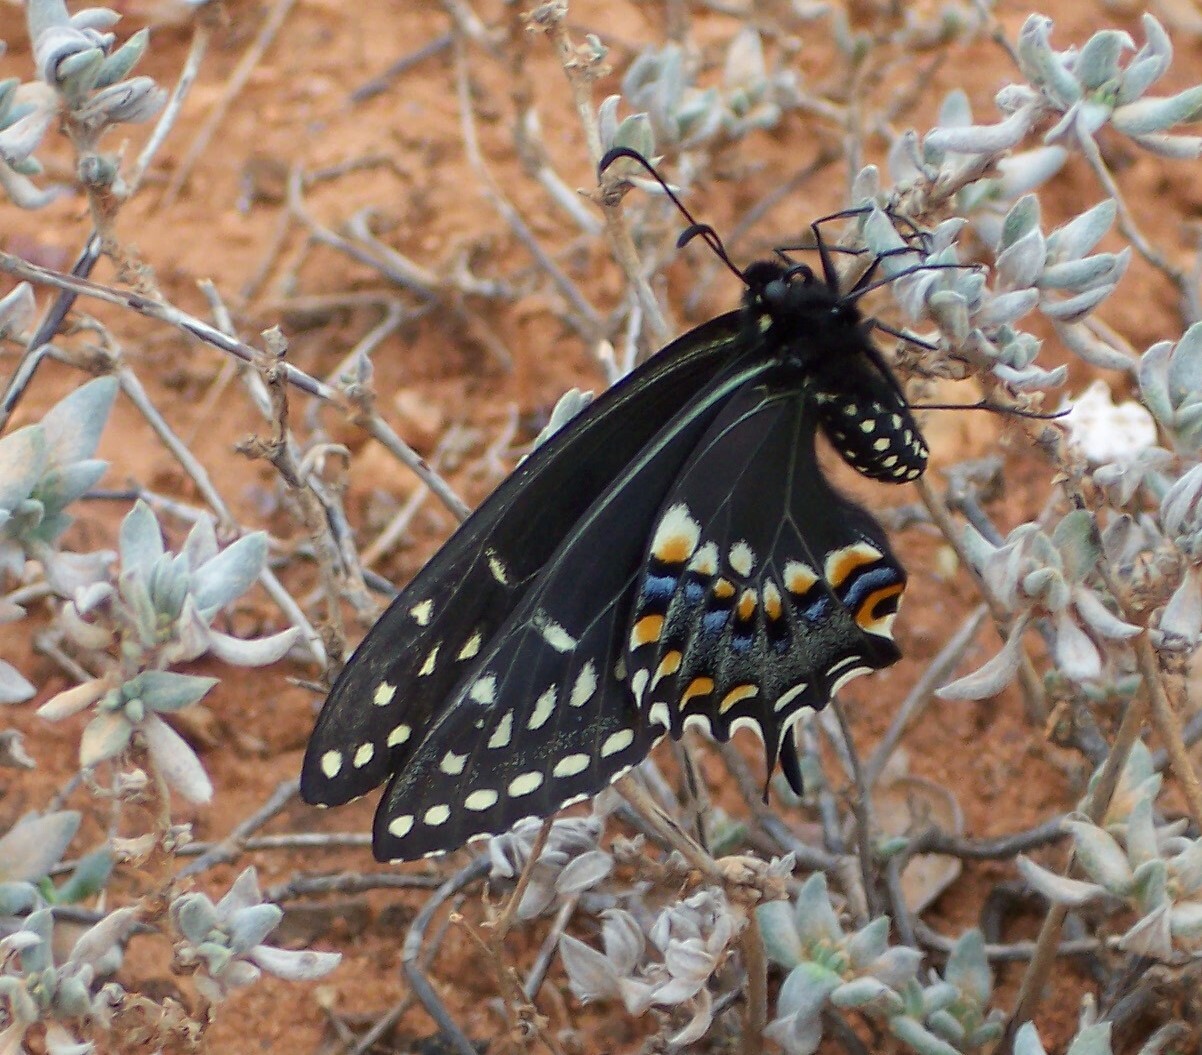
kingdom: Animalia
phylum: Arthropoda
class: Insecta
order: Lepidoptera
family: Papilionidae
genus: Papilio
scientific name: Papilio polyxenes
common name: Black swallowtail
